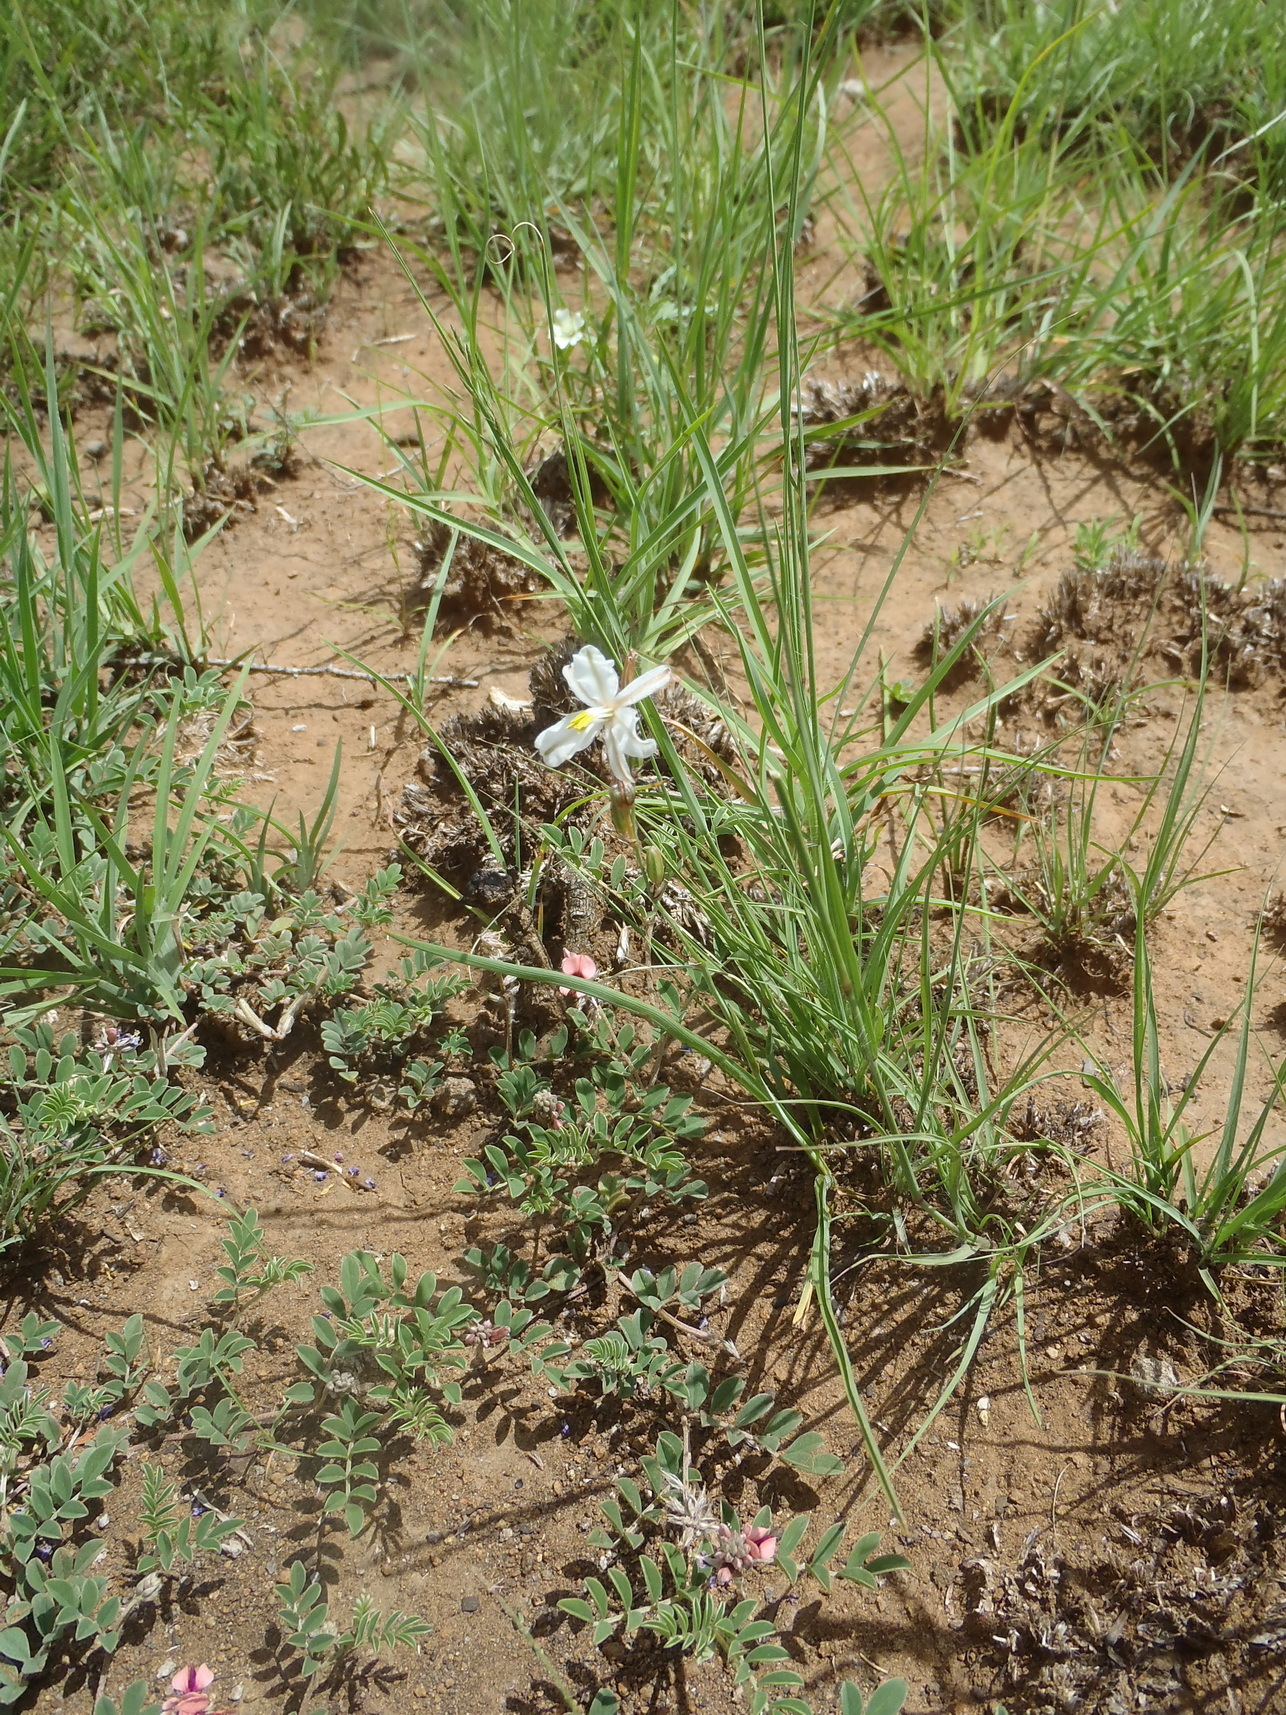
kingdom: Plantae
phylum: Tracheophyta
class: Liliopsida
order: Asparagales
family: Asparagaceae
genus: Chlorophytum
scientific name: Chlorophytum fasciculatum
